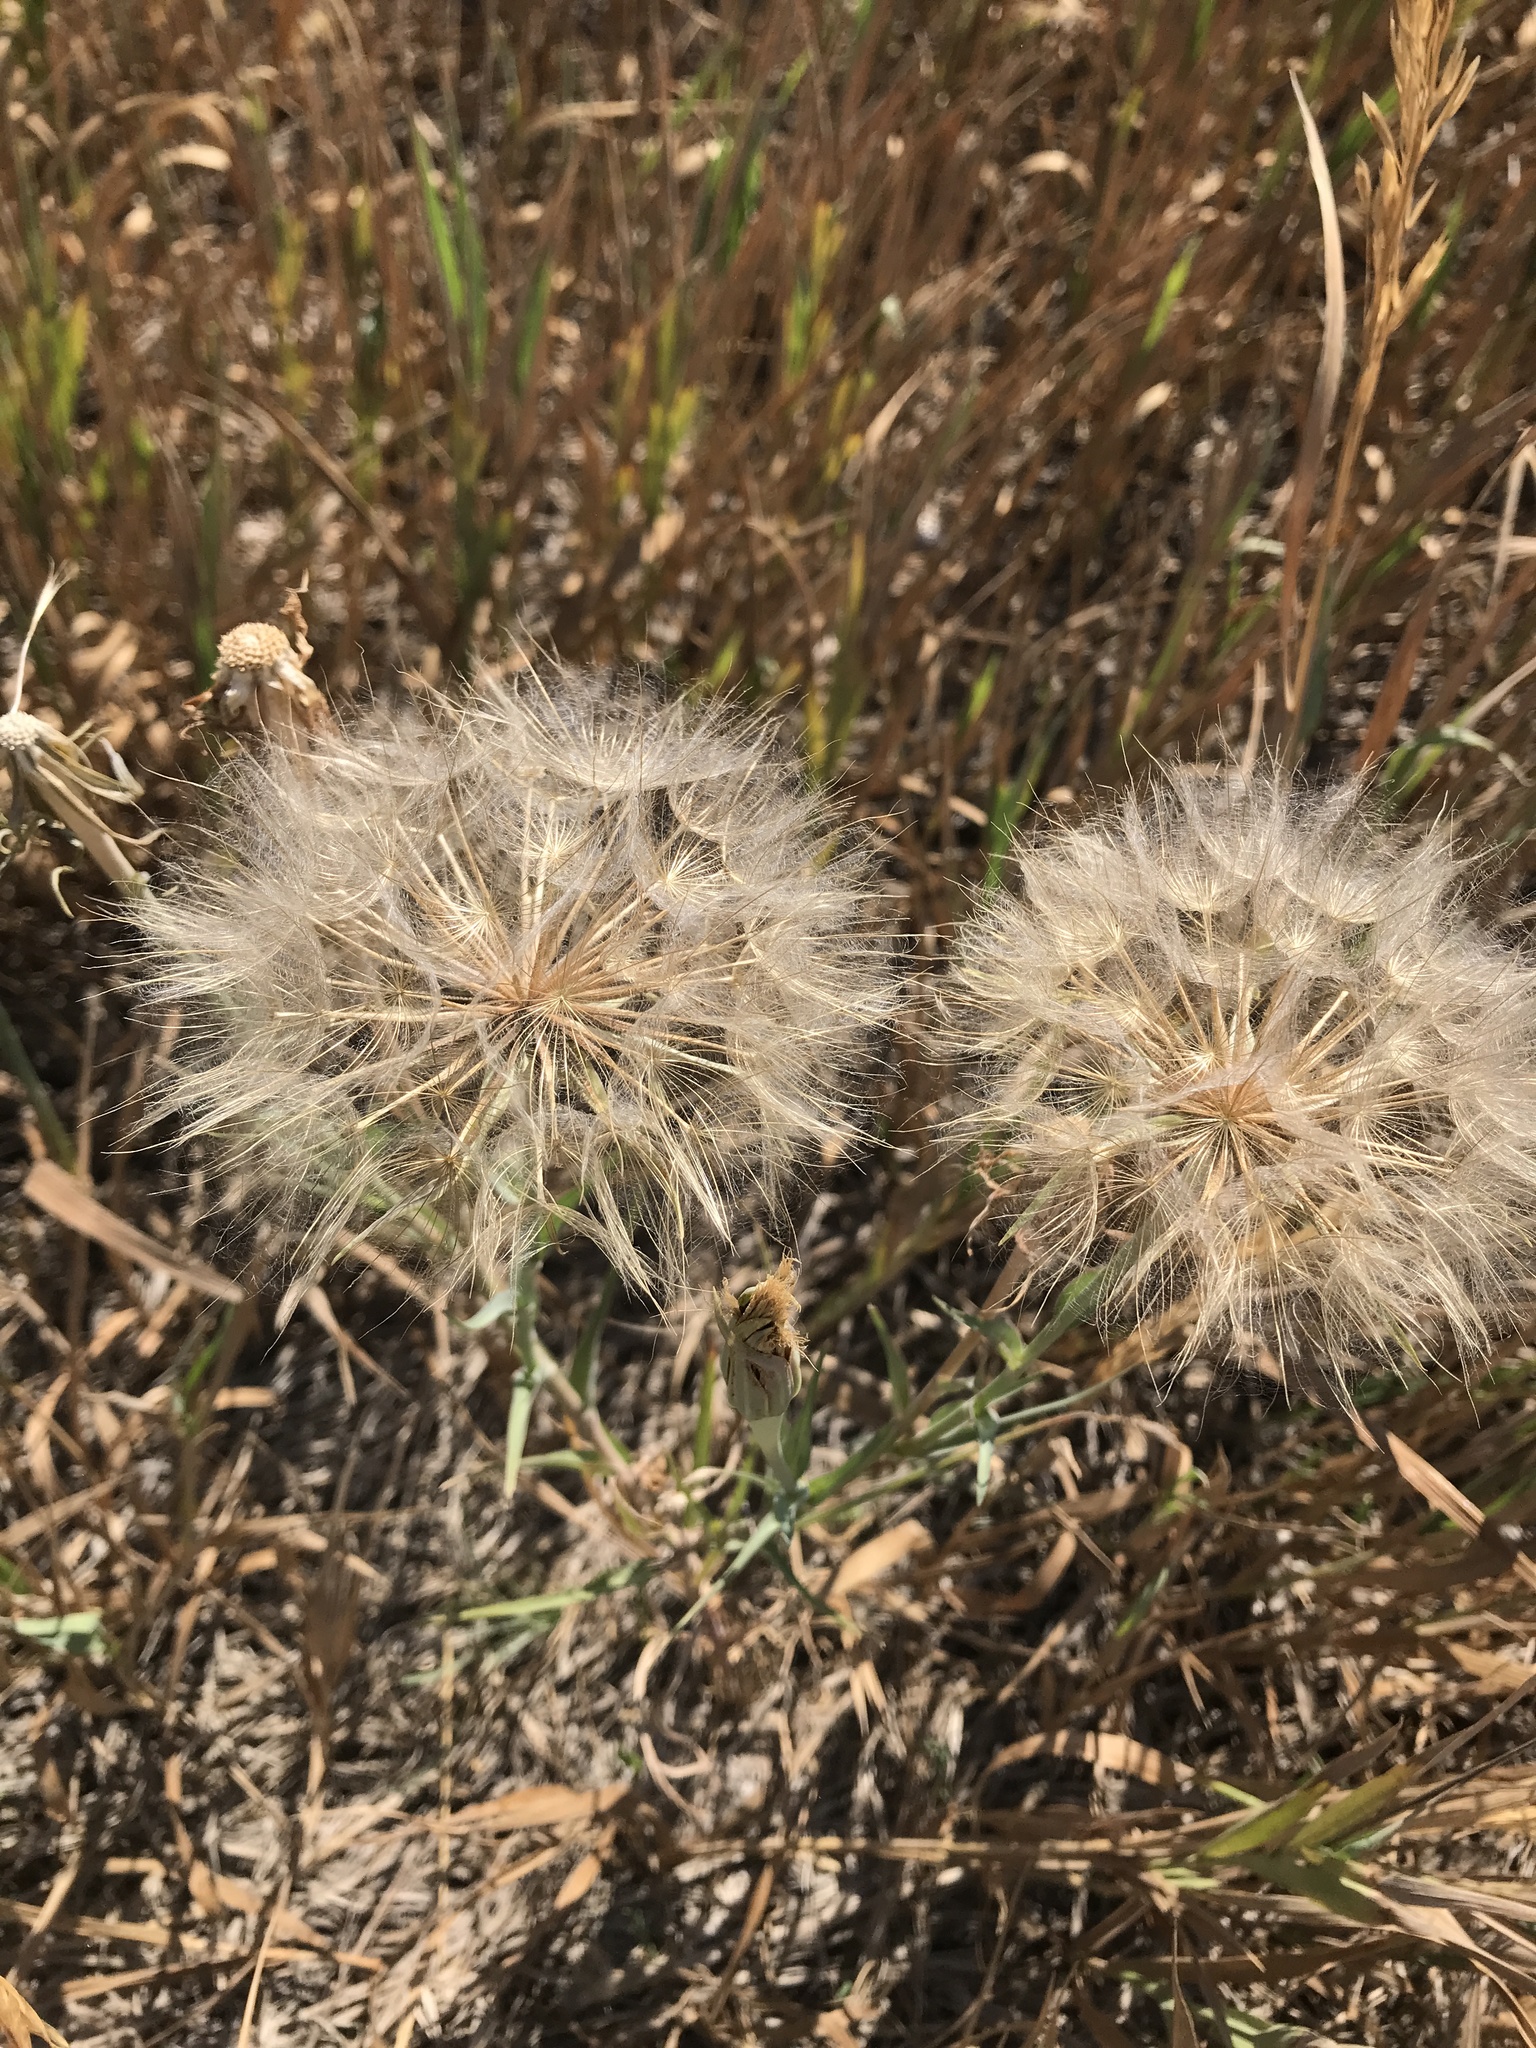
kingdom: Plantae
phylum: Tracheophyta
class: Magnoliopsida
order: Asterales
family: Asteraceae
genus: Tragopogon
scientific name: Tragopogon dubius
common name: Yellow salsify
